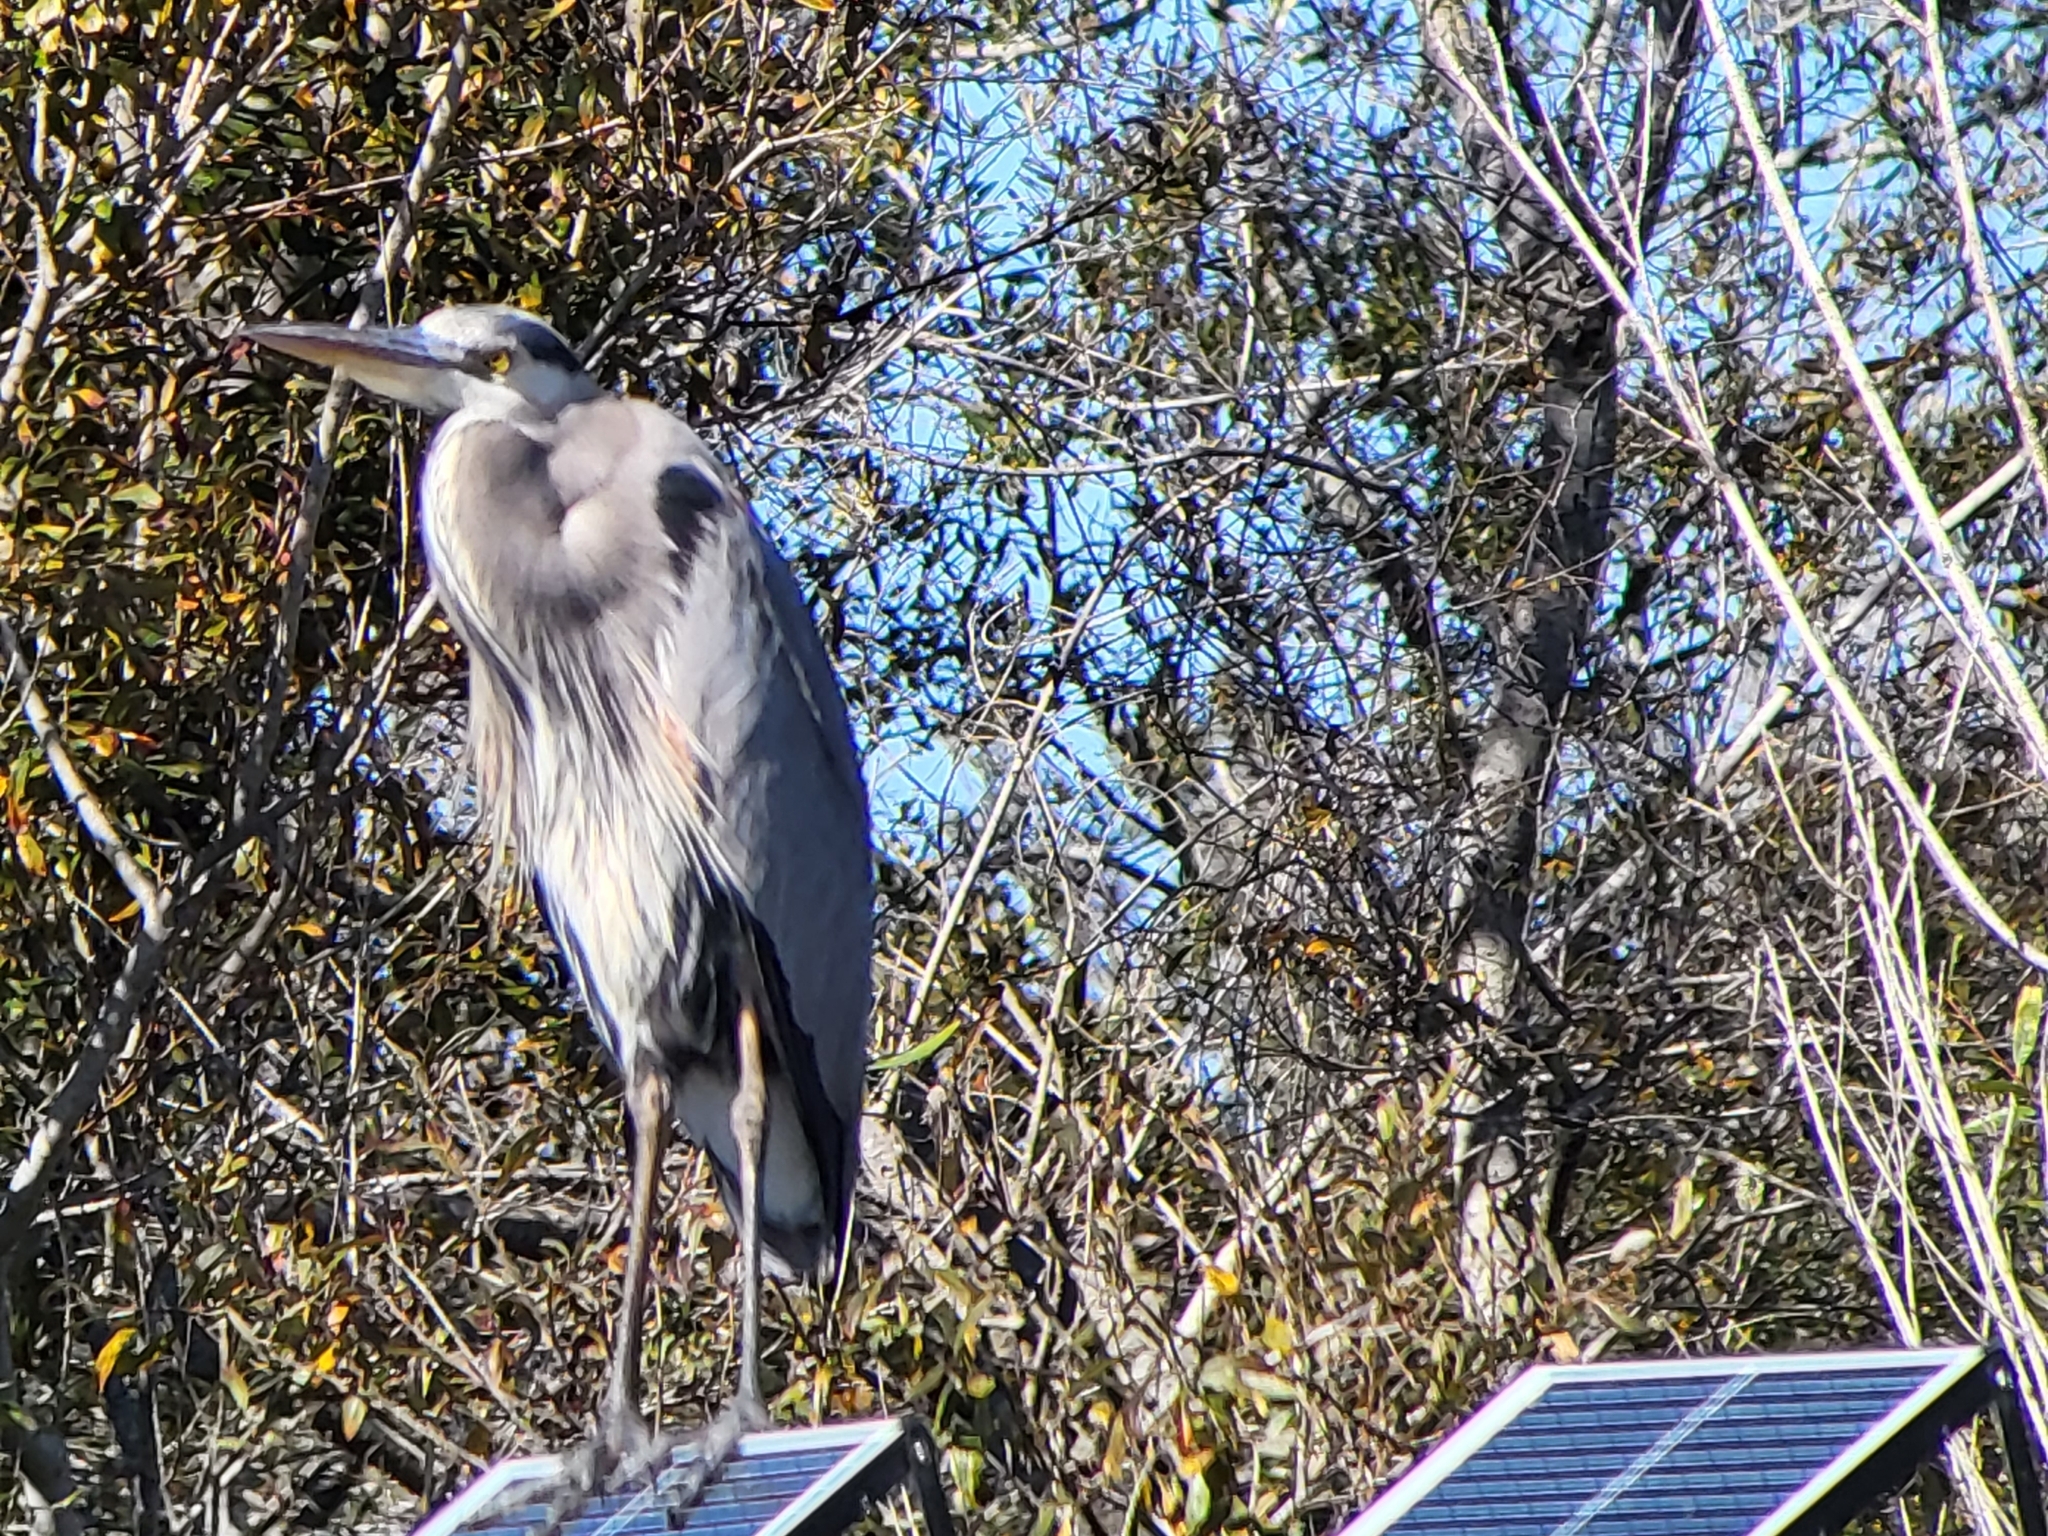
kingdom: Animalia
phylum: Chordata
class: Aves
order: Pelecaniformes
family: Ardeidae
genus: Ardea
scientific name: Ardea herodias
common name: Great blue heron
